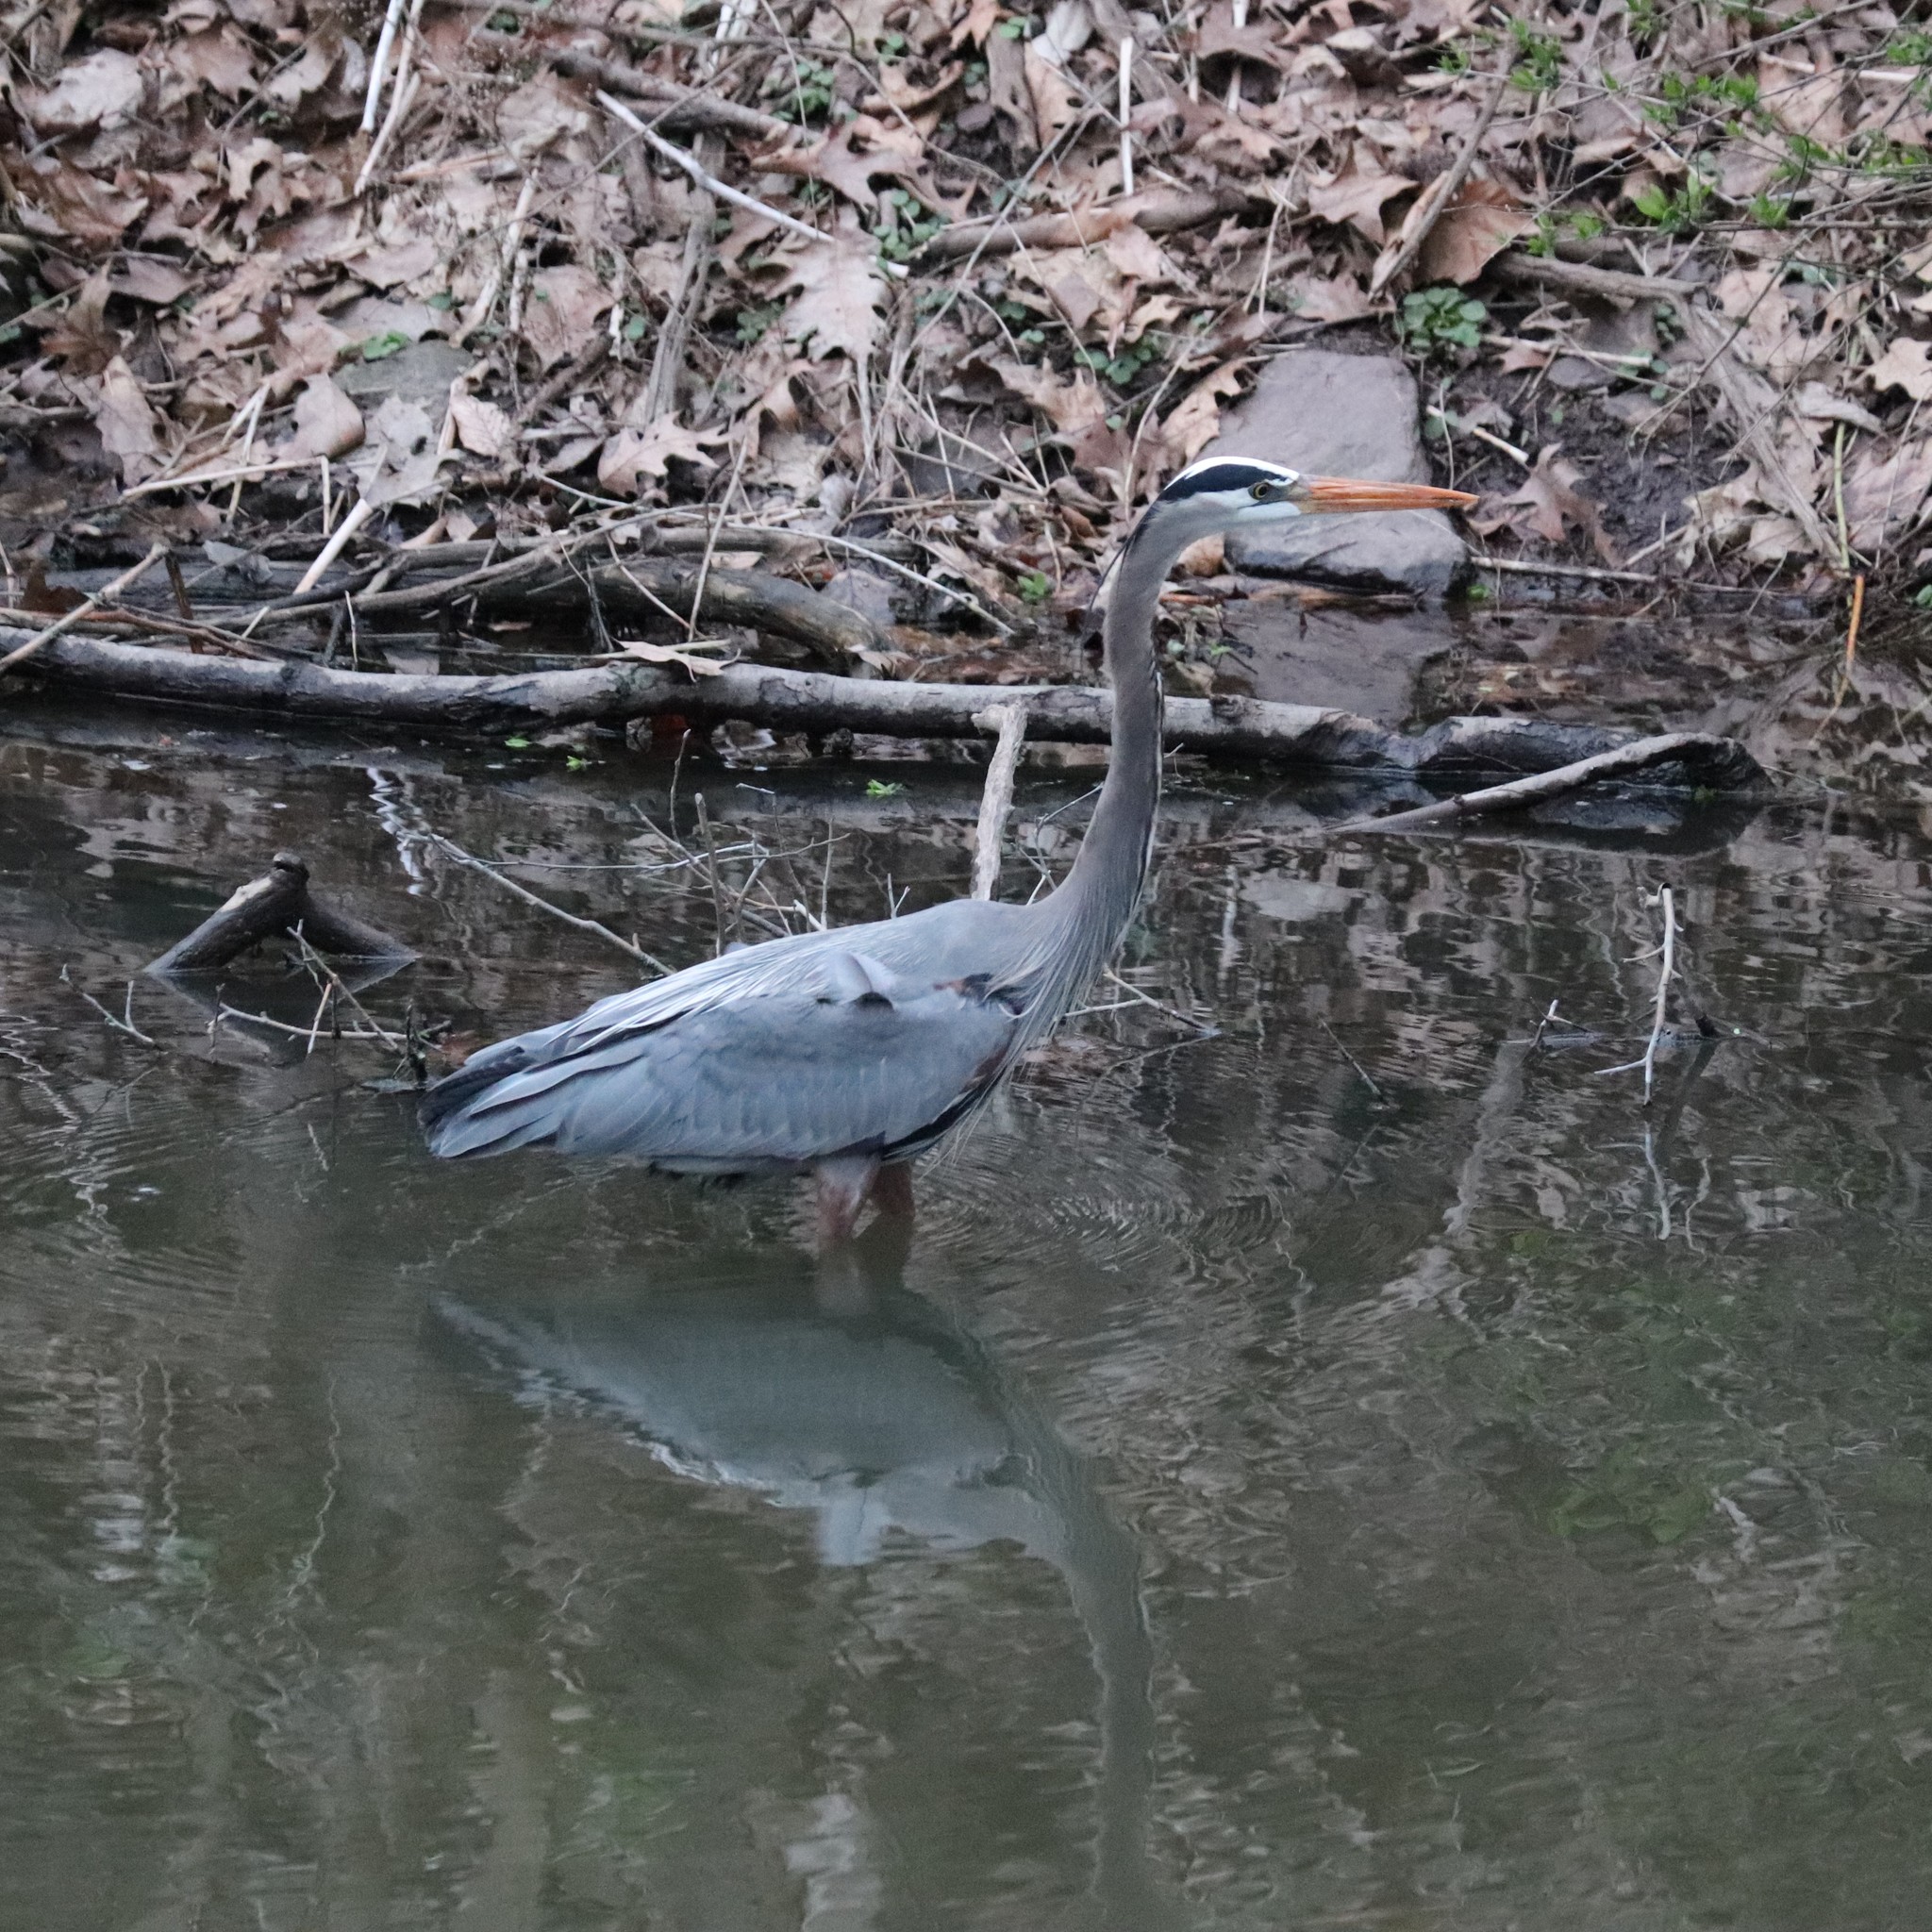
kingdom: Animalia
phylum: Chordata
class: Aves
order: Pelecaniformes
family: Ardeidae
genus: Ardea
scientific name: Ardea herodias
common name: Great blue heron
